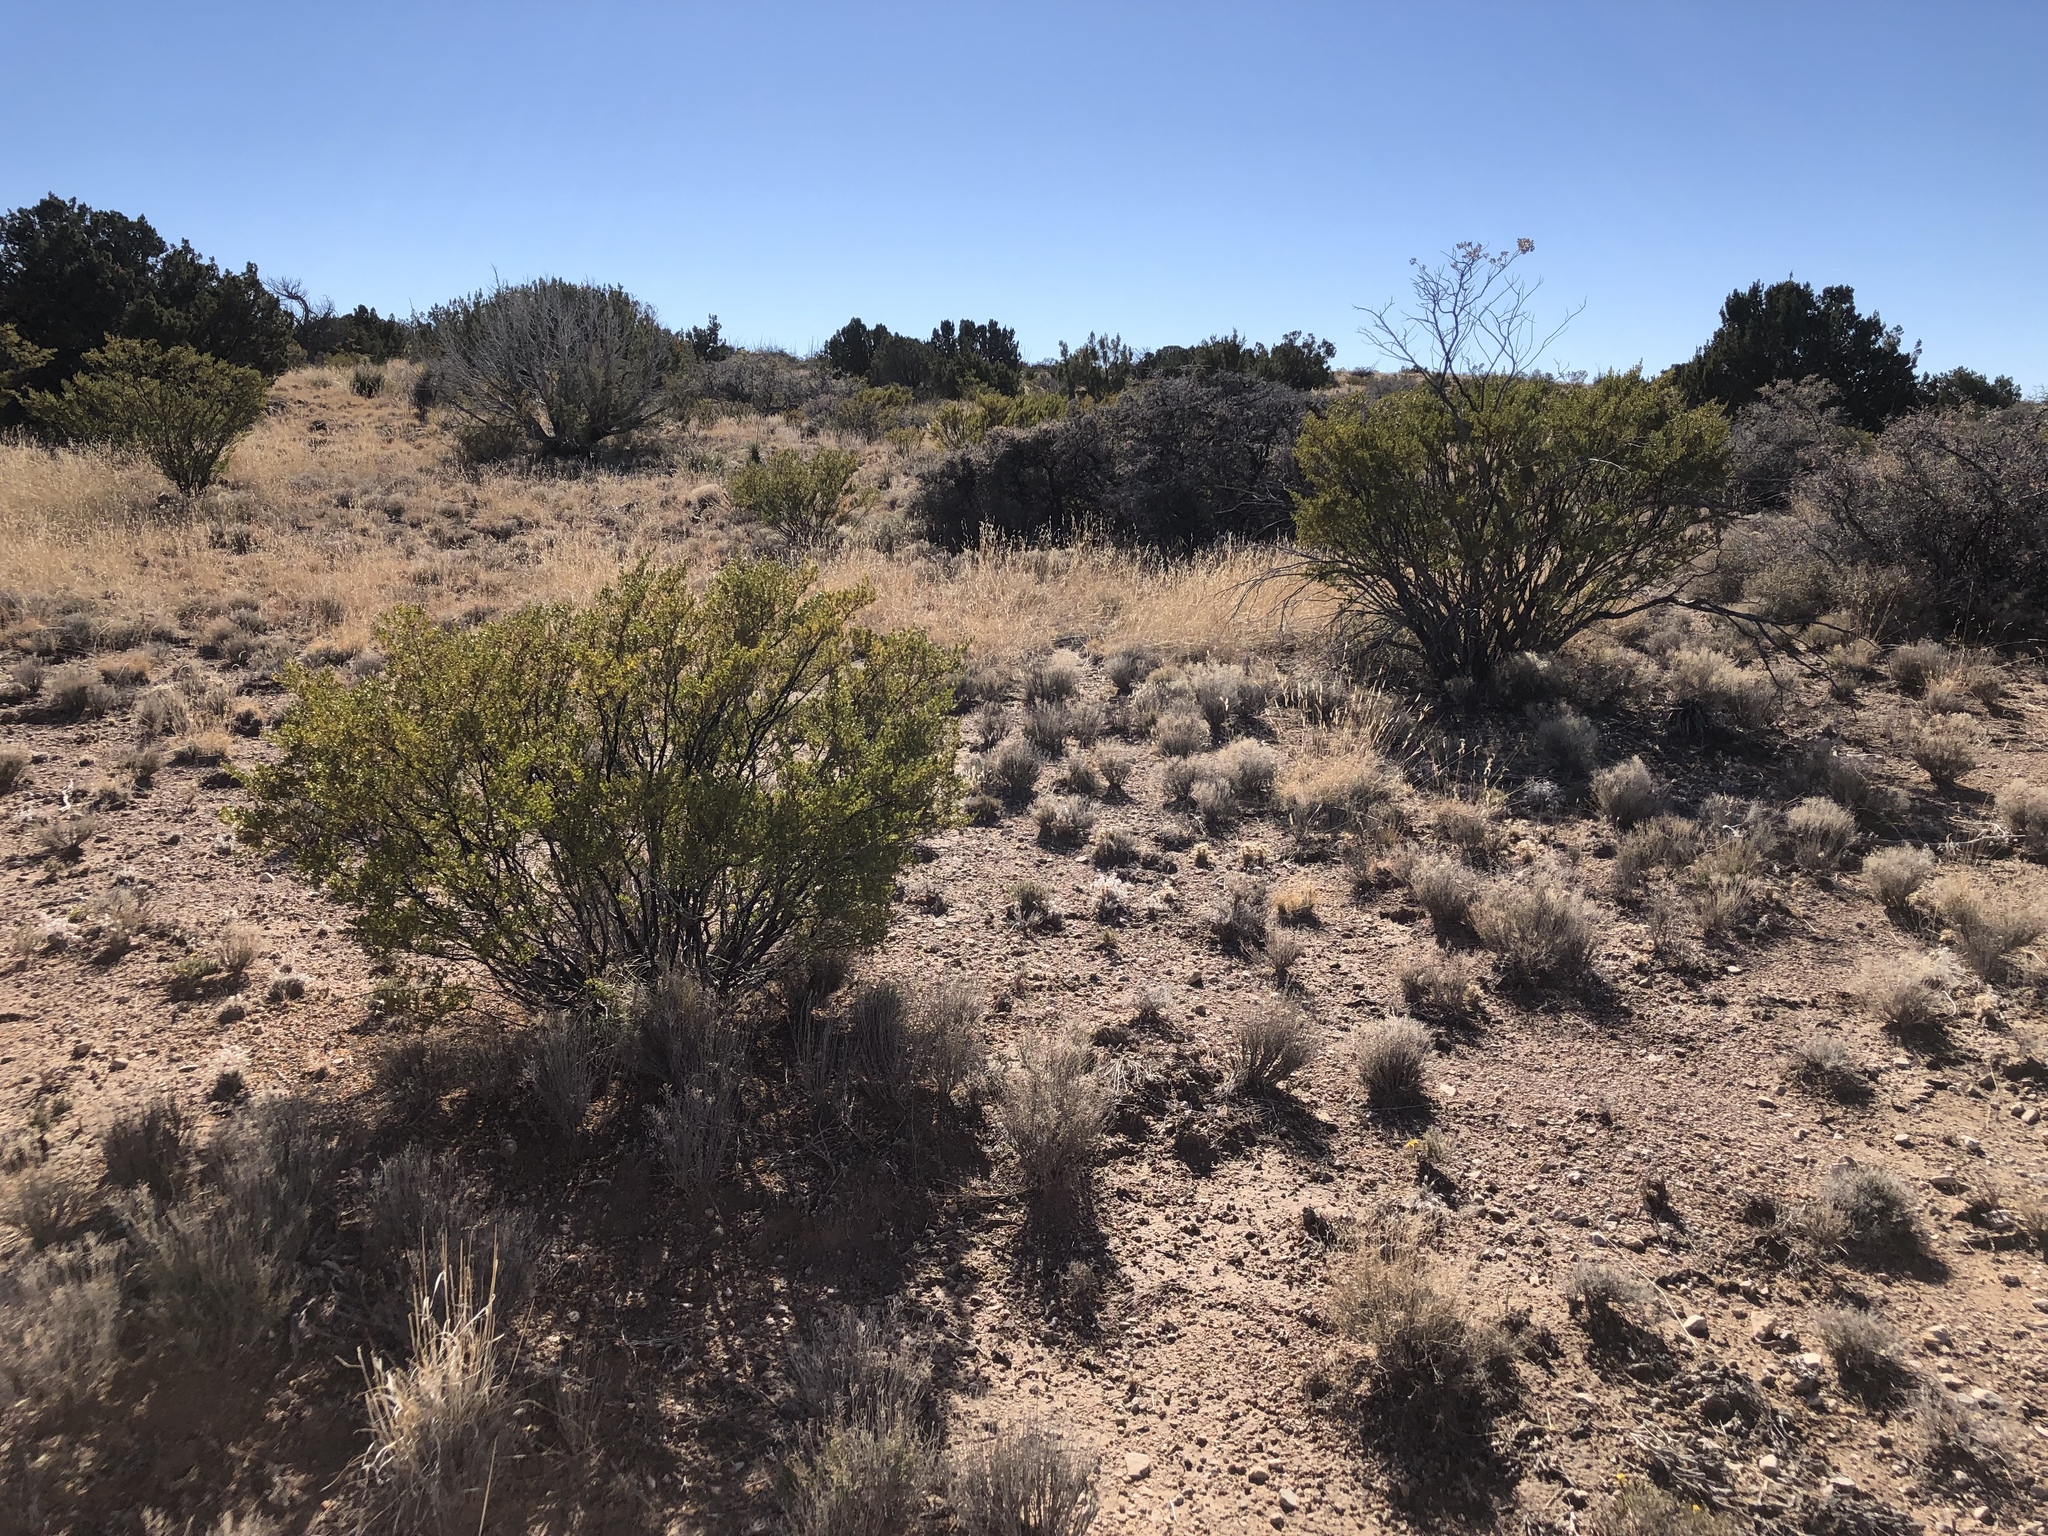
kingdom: Plantae
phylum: Tracheophyta
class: Magnoliopsida
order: Zygophyllales
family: Zygophyllaceae
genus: Larrea
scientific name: Larrea tridentata
